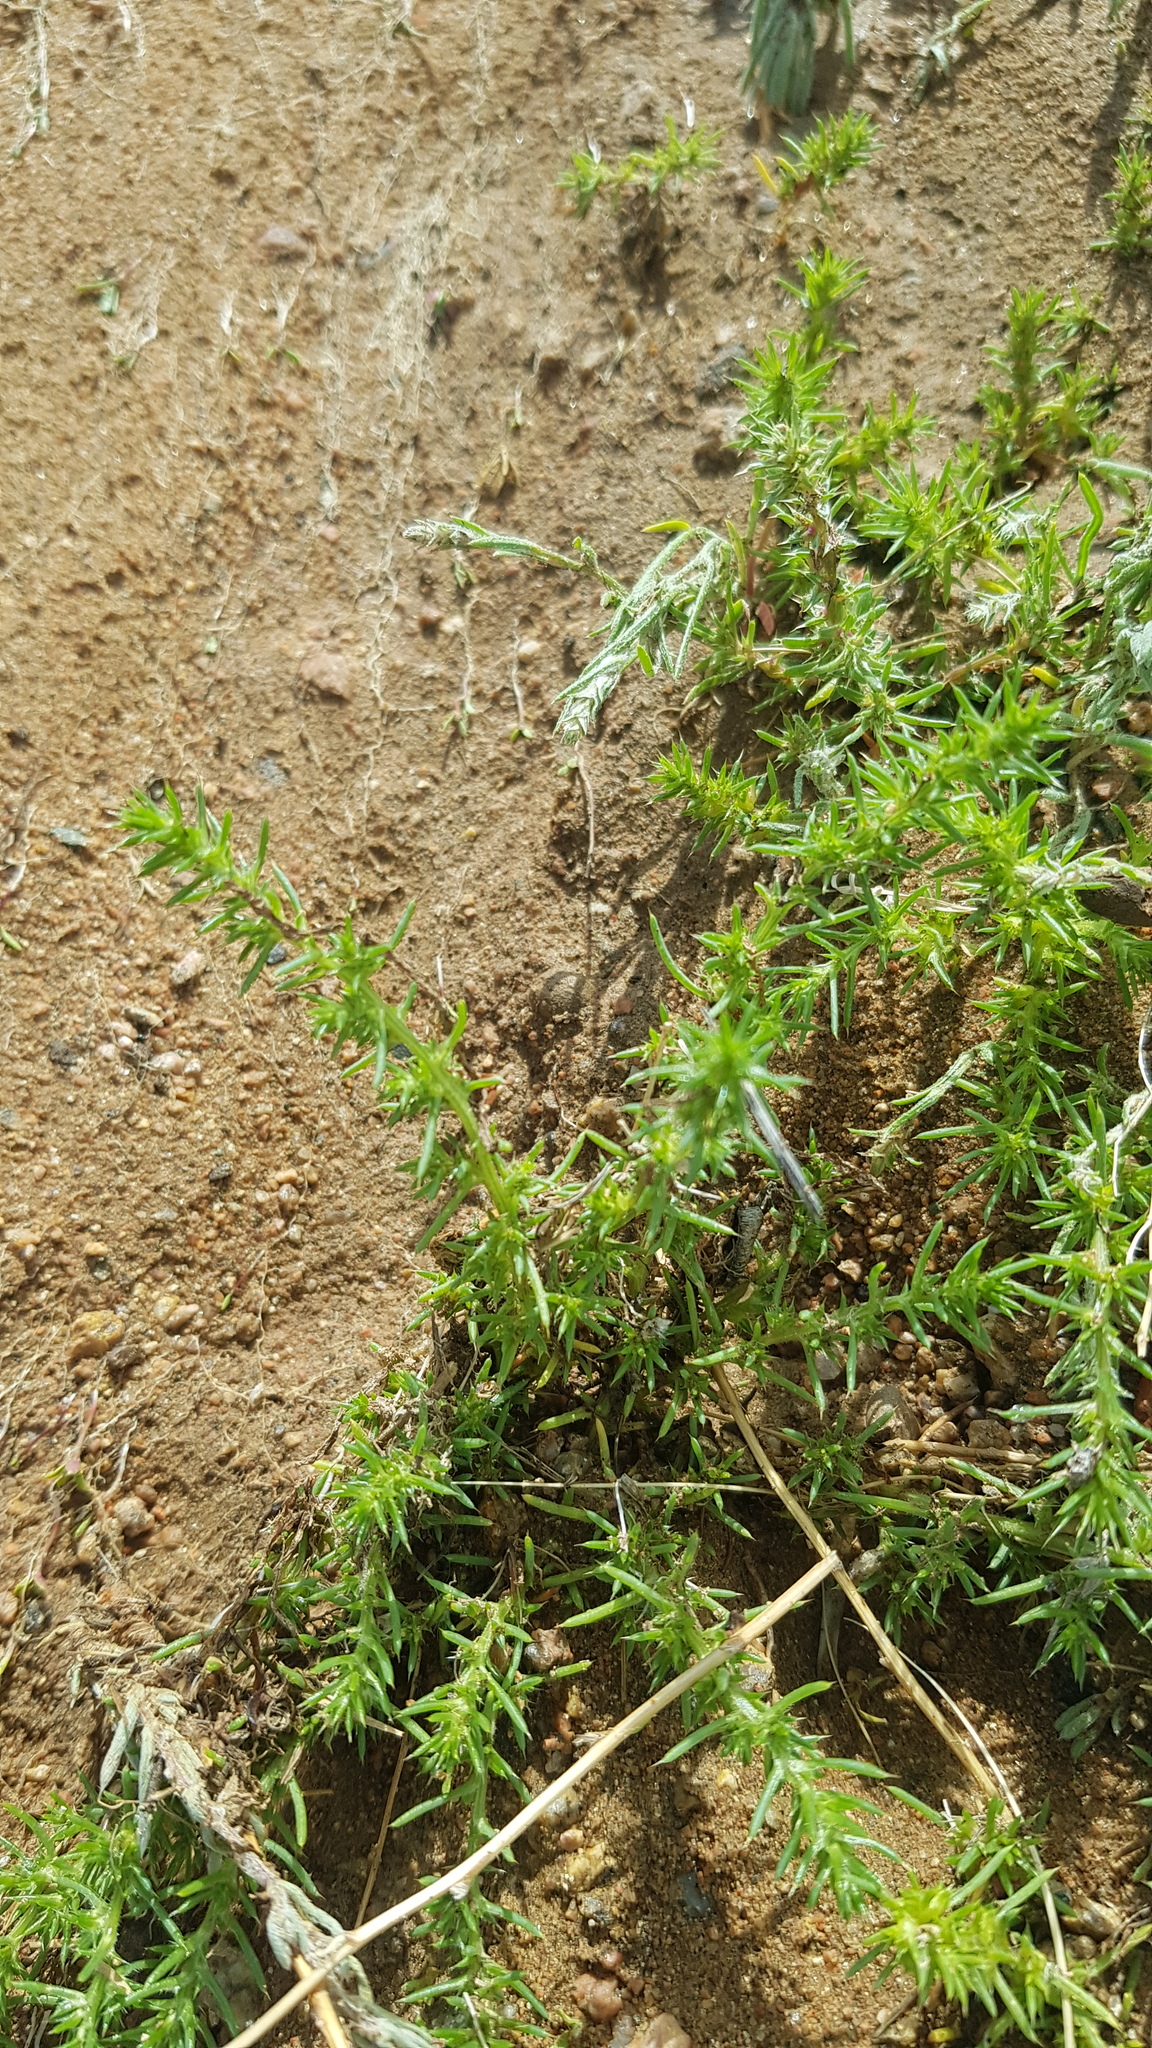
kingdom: Plantae
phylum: Tracheophyta
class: Magnoliopsida
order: Caryophyllales
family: Amaranthaceae
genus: Salsola
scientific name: Salsola collina
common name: Tumbleweed
